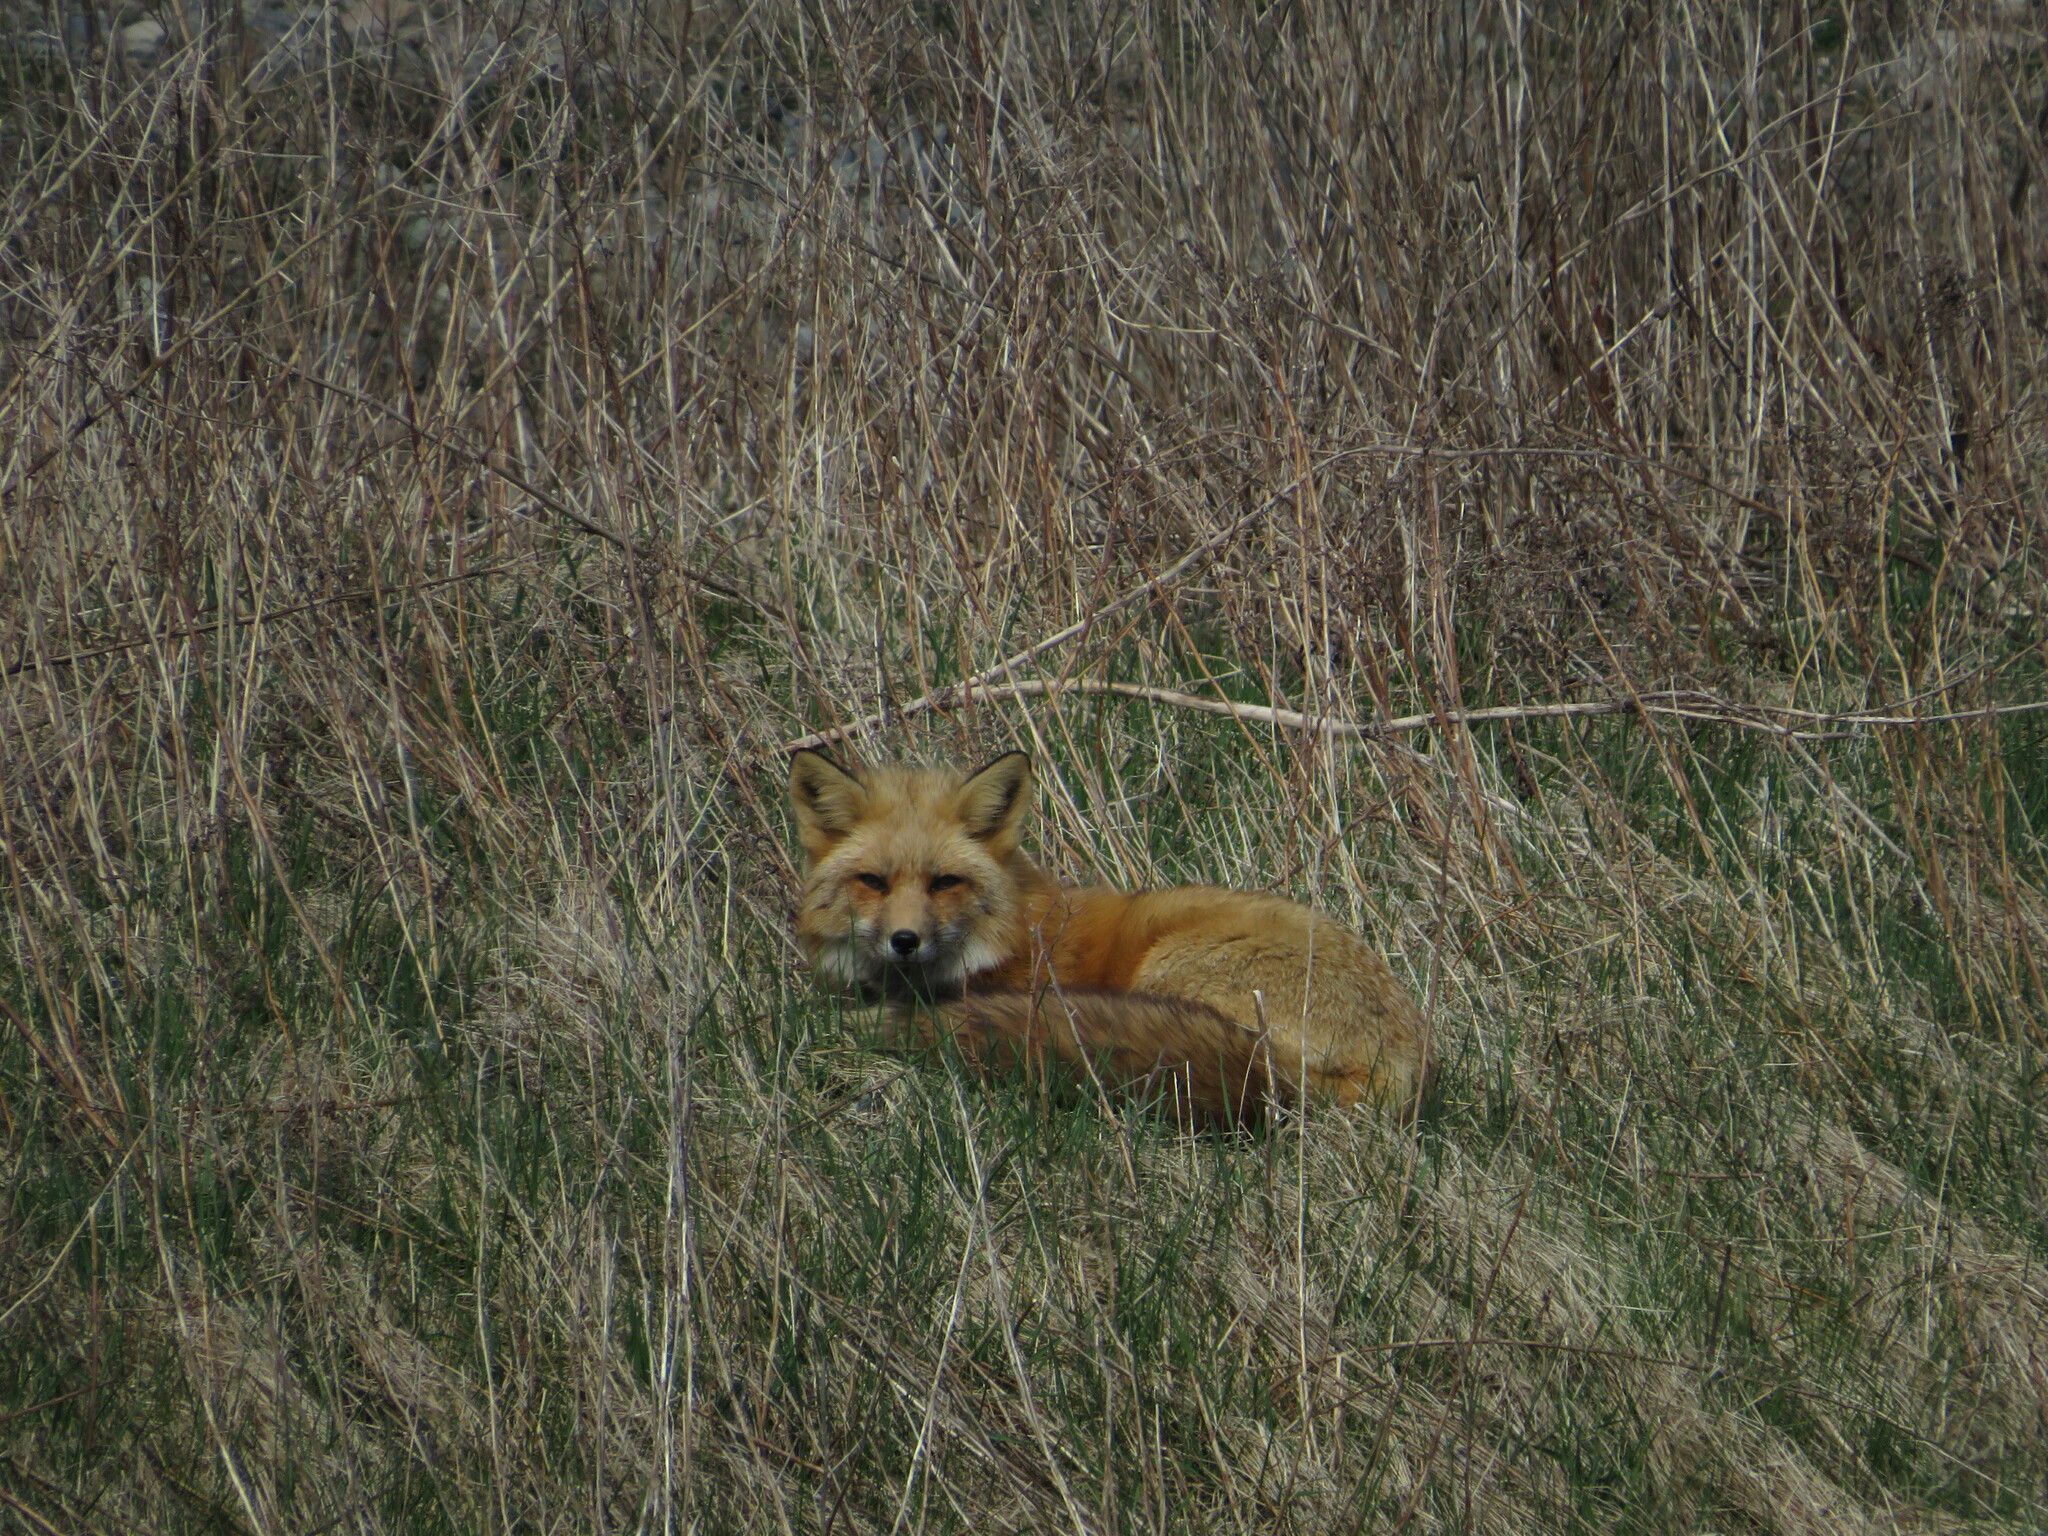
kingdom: Animalia
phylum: Chordata
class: Mammalia
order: Carnivora
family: Canidae
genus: Vulpes
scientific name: Vulpes vulpes
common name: Red fox
